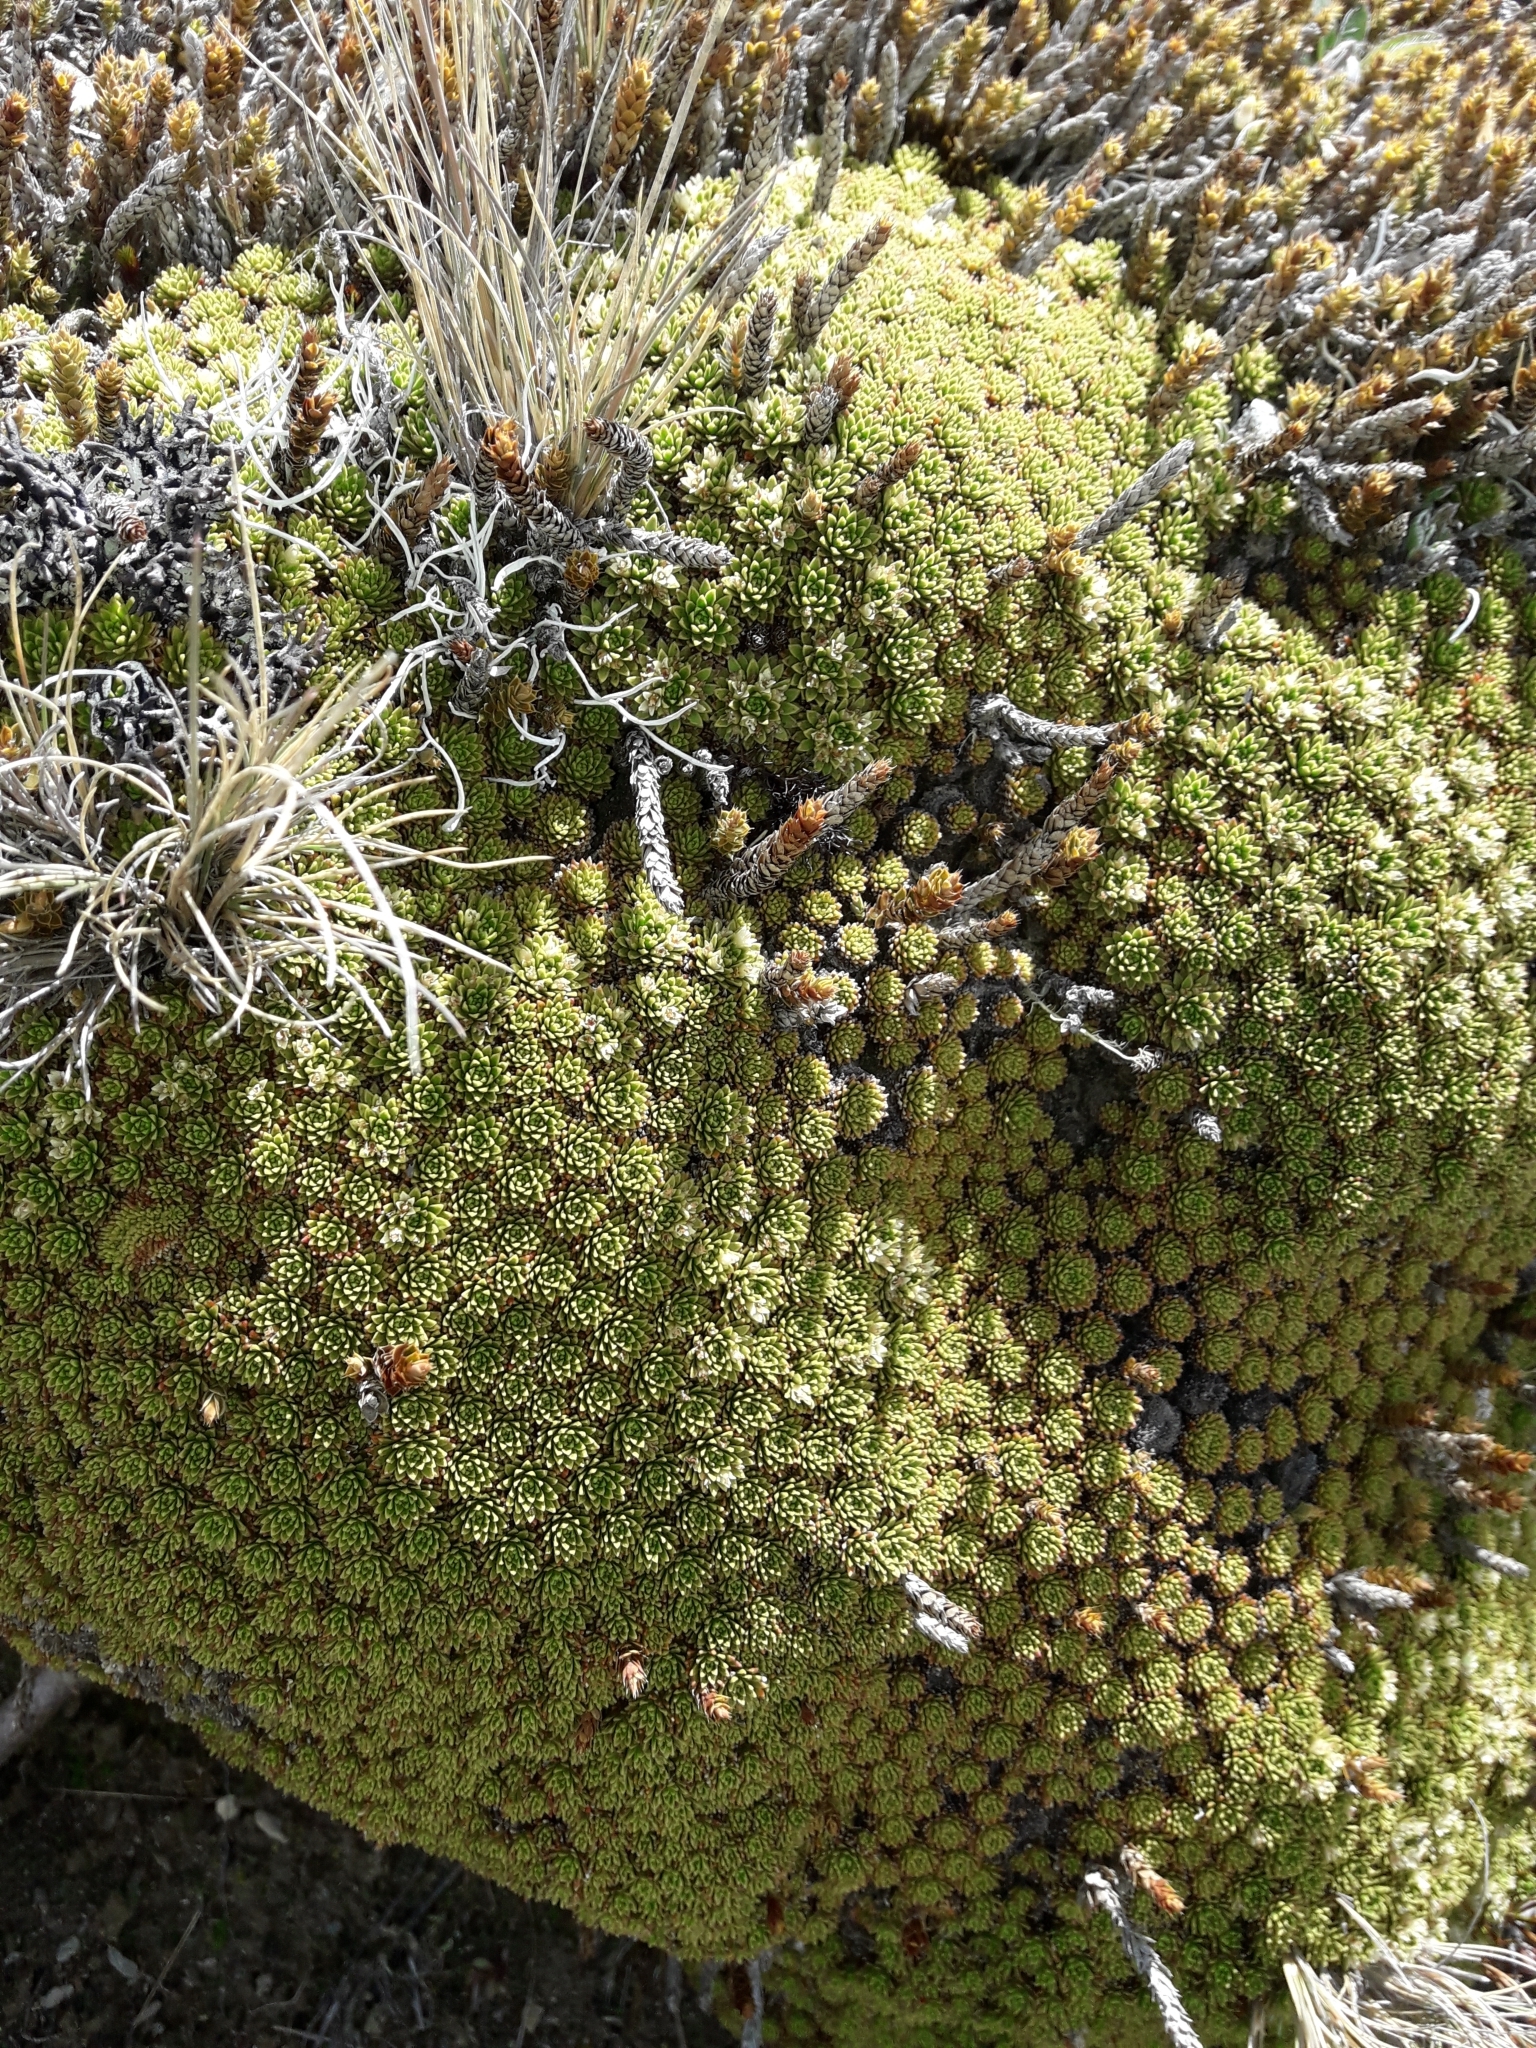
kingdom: Plantae
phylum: Tracheophyta
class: Magnoliopsida
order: Caryophyllales
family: Montiaceae
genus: Hectorella
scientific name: Hectorella caespitosa
